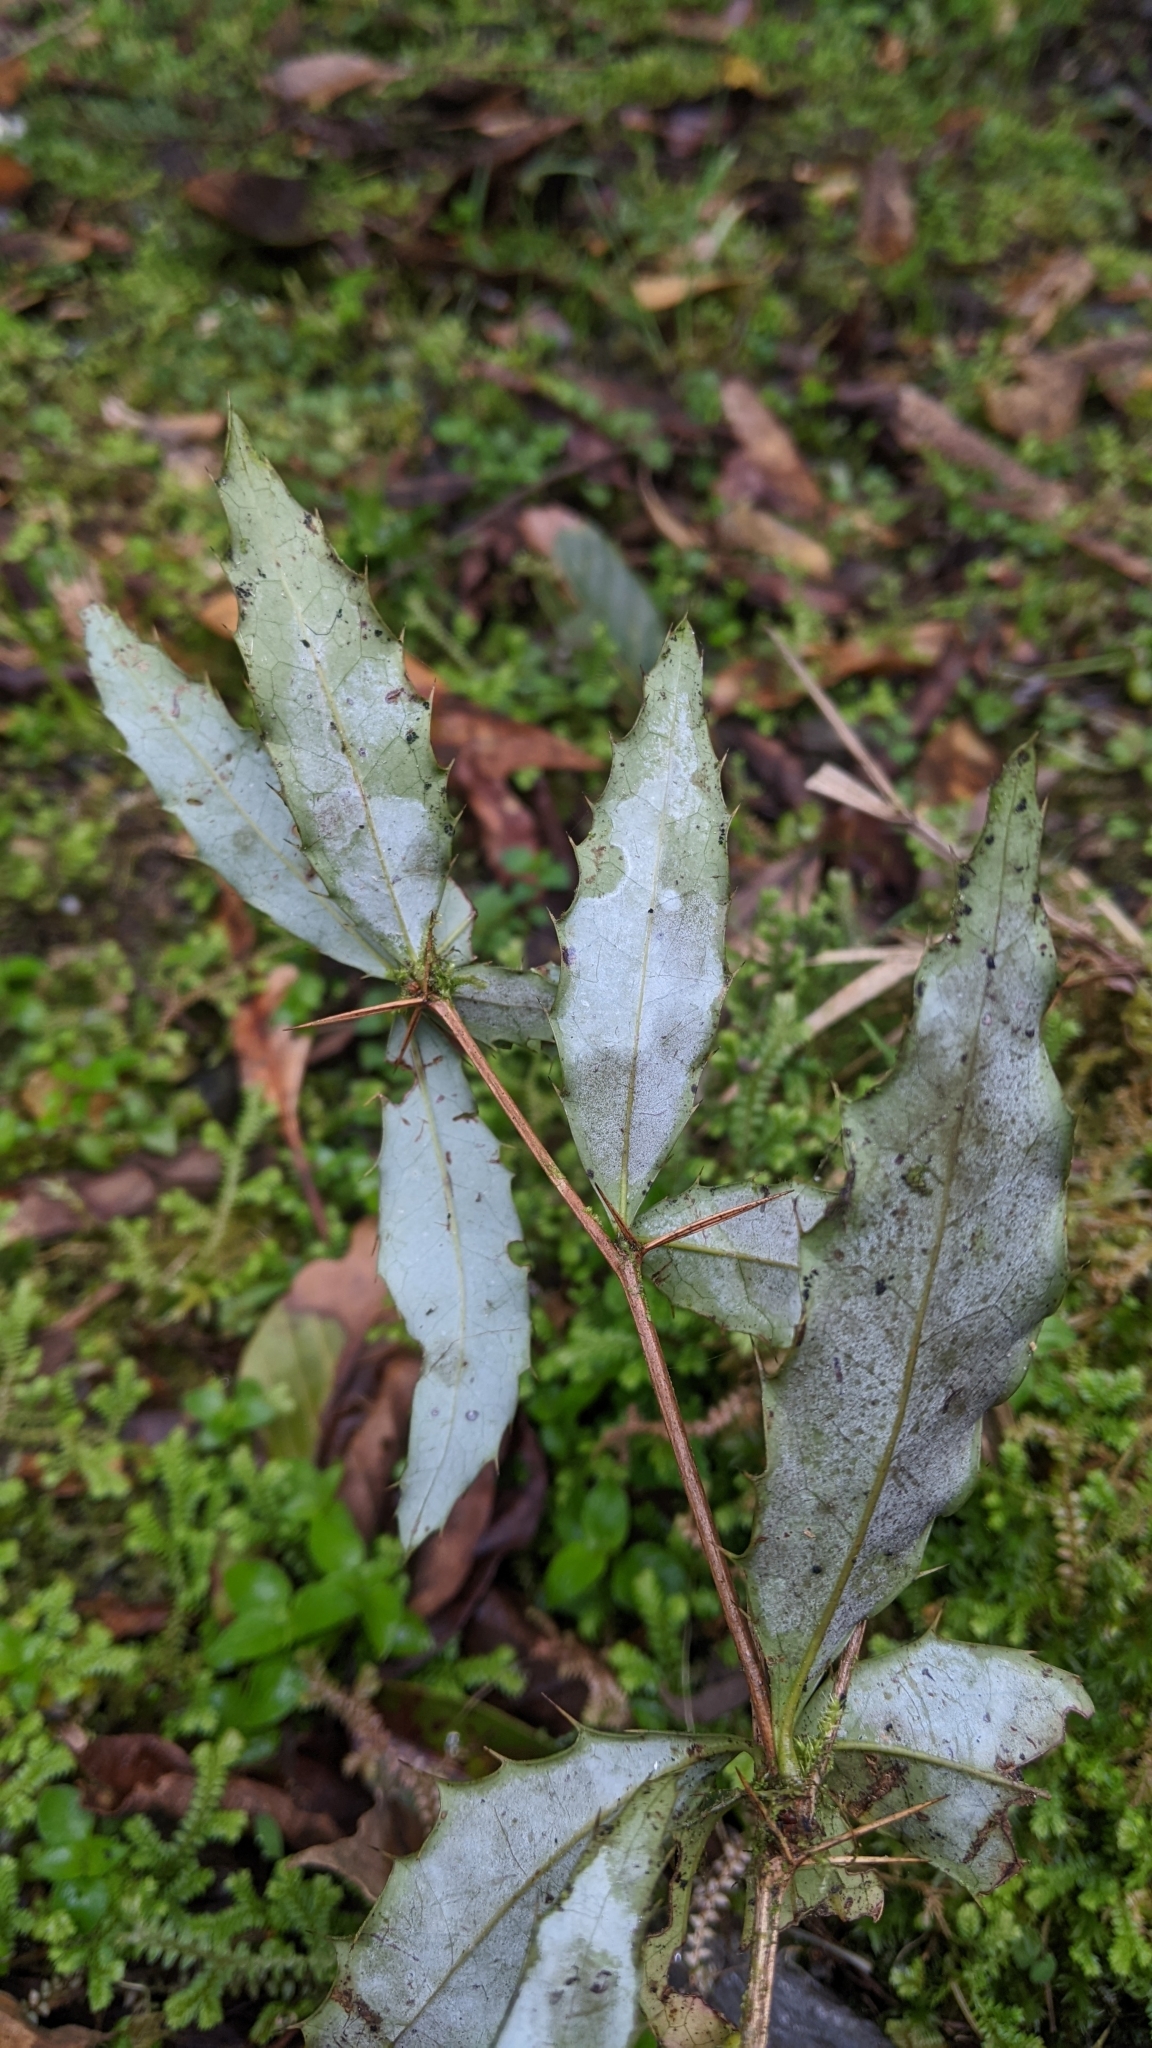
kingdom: Plantae
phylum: Tracheophyta
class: Magnoliopsida
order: Ranunculales
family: Berberidaceae
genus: Berberis
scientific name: Berberis morii
